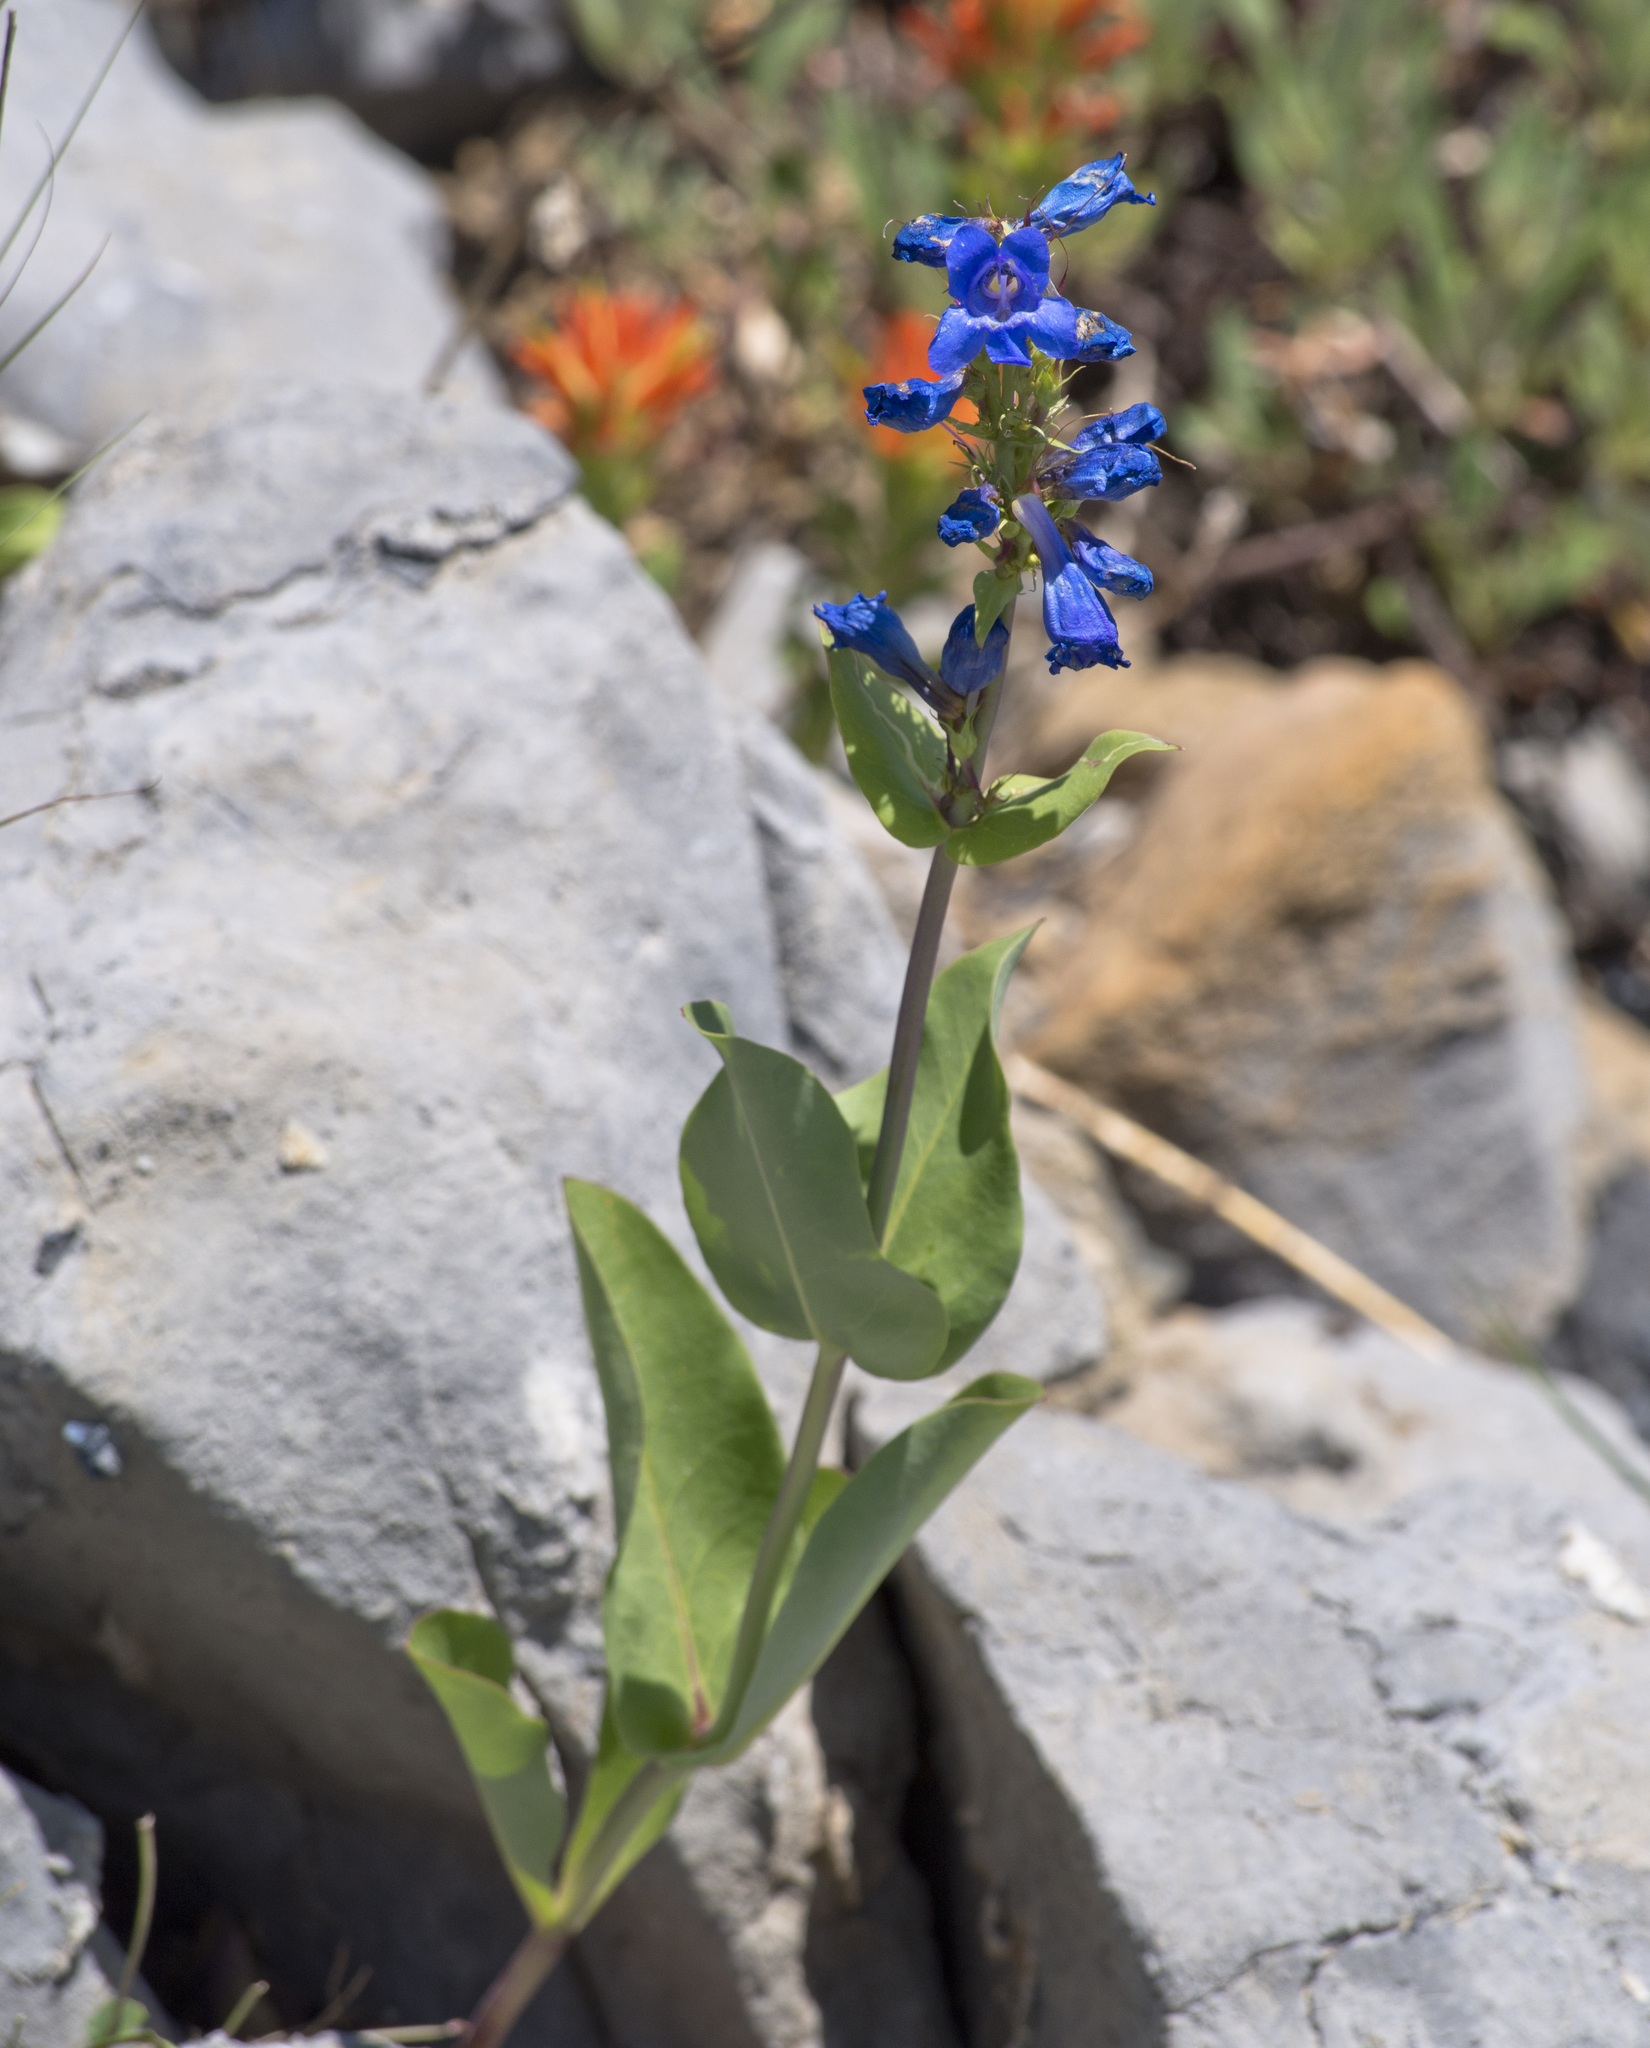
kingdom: Plantae
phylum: Tracheophyta
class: Magnoliopsida
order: Lamiales
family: Plantaginaceae
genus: Penstemon
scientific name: Penstemon cyananthus
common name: Wasatch penstemon
